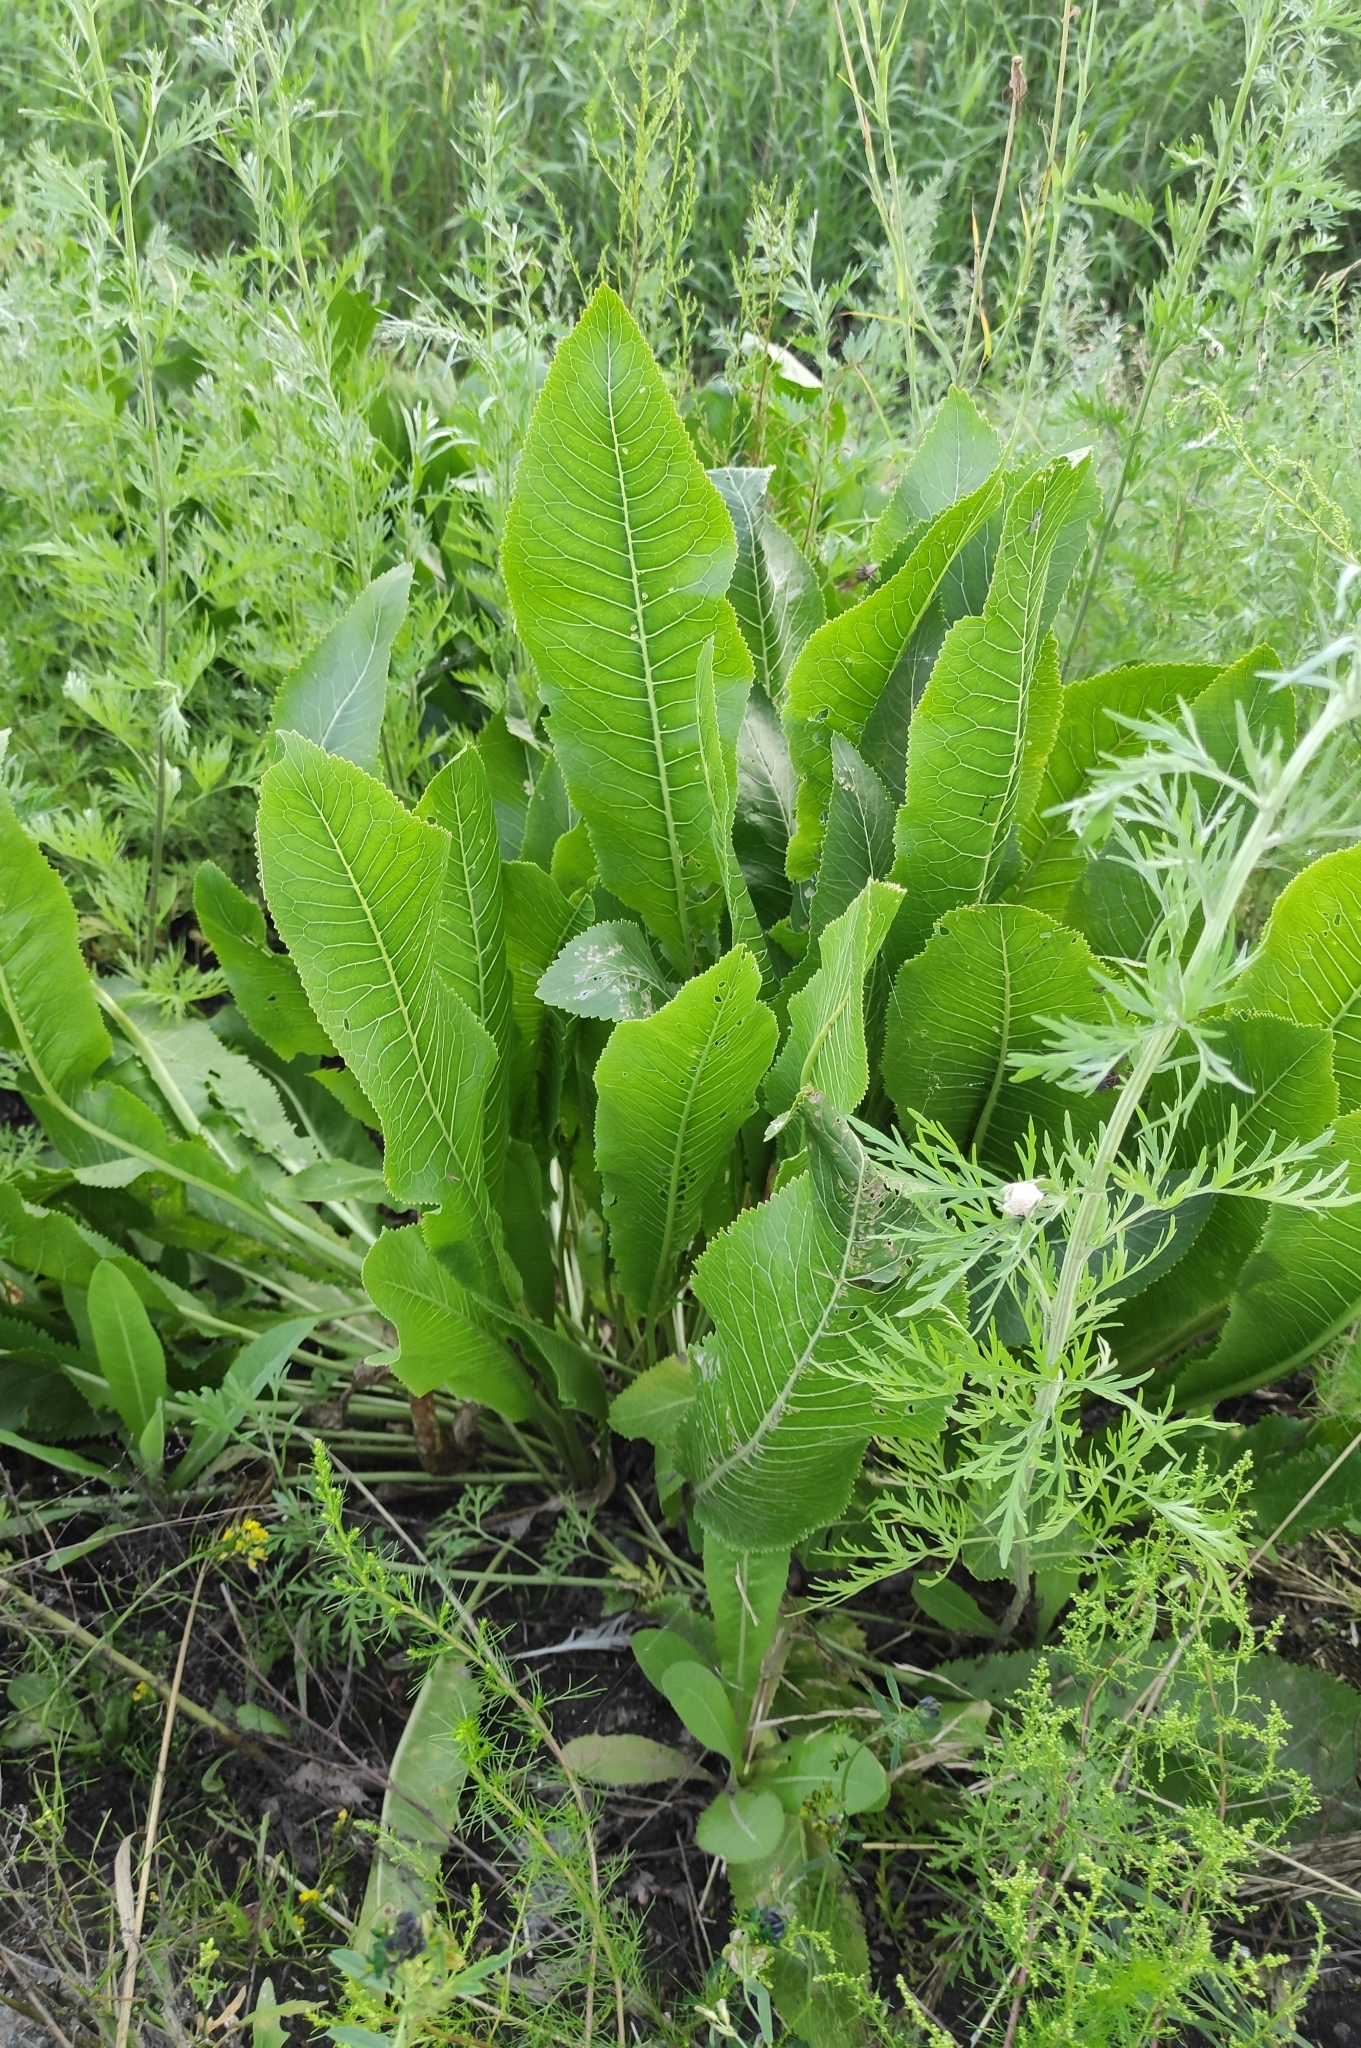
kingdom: Plantae
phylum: Tracheophyta
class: Magnoliopsida
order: Brassicales
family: Brassicaceae
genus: Armoracia
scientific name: Armoracia rusticana
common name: Horseradish
